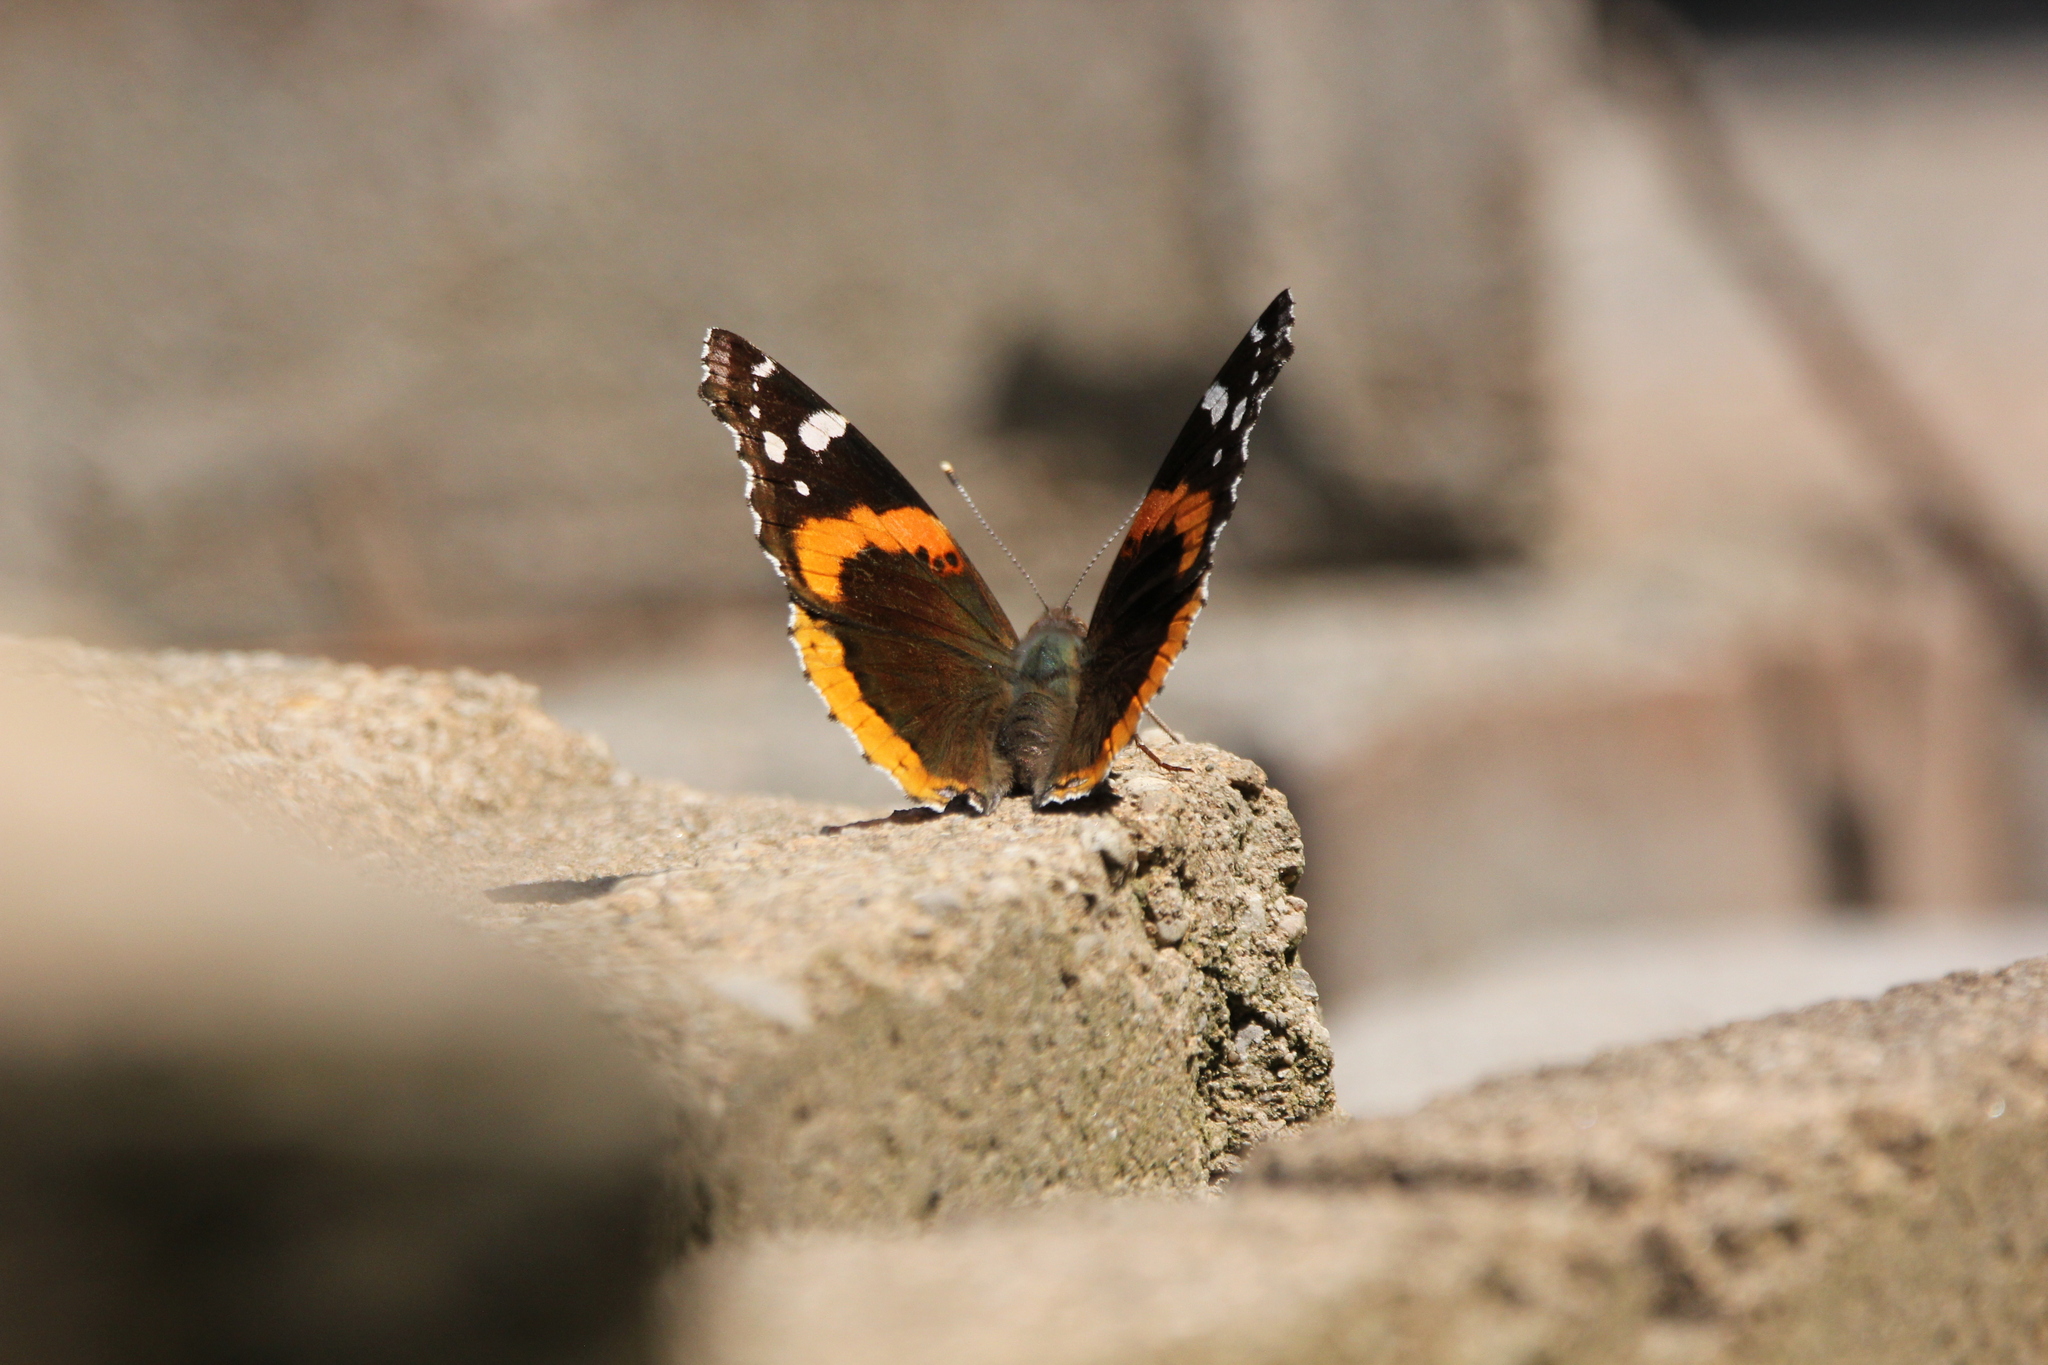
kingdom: Animalia
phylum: Arthropoda
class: Insecta
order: Lepidoptera
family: Nymphalidae
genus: Vanessa
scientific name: Vanessa atalanta
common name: Red admiral
